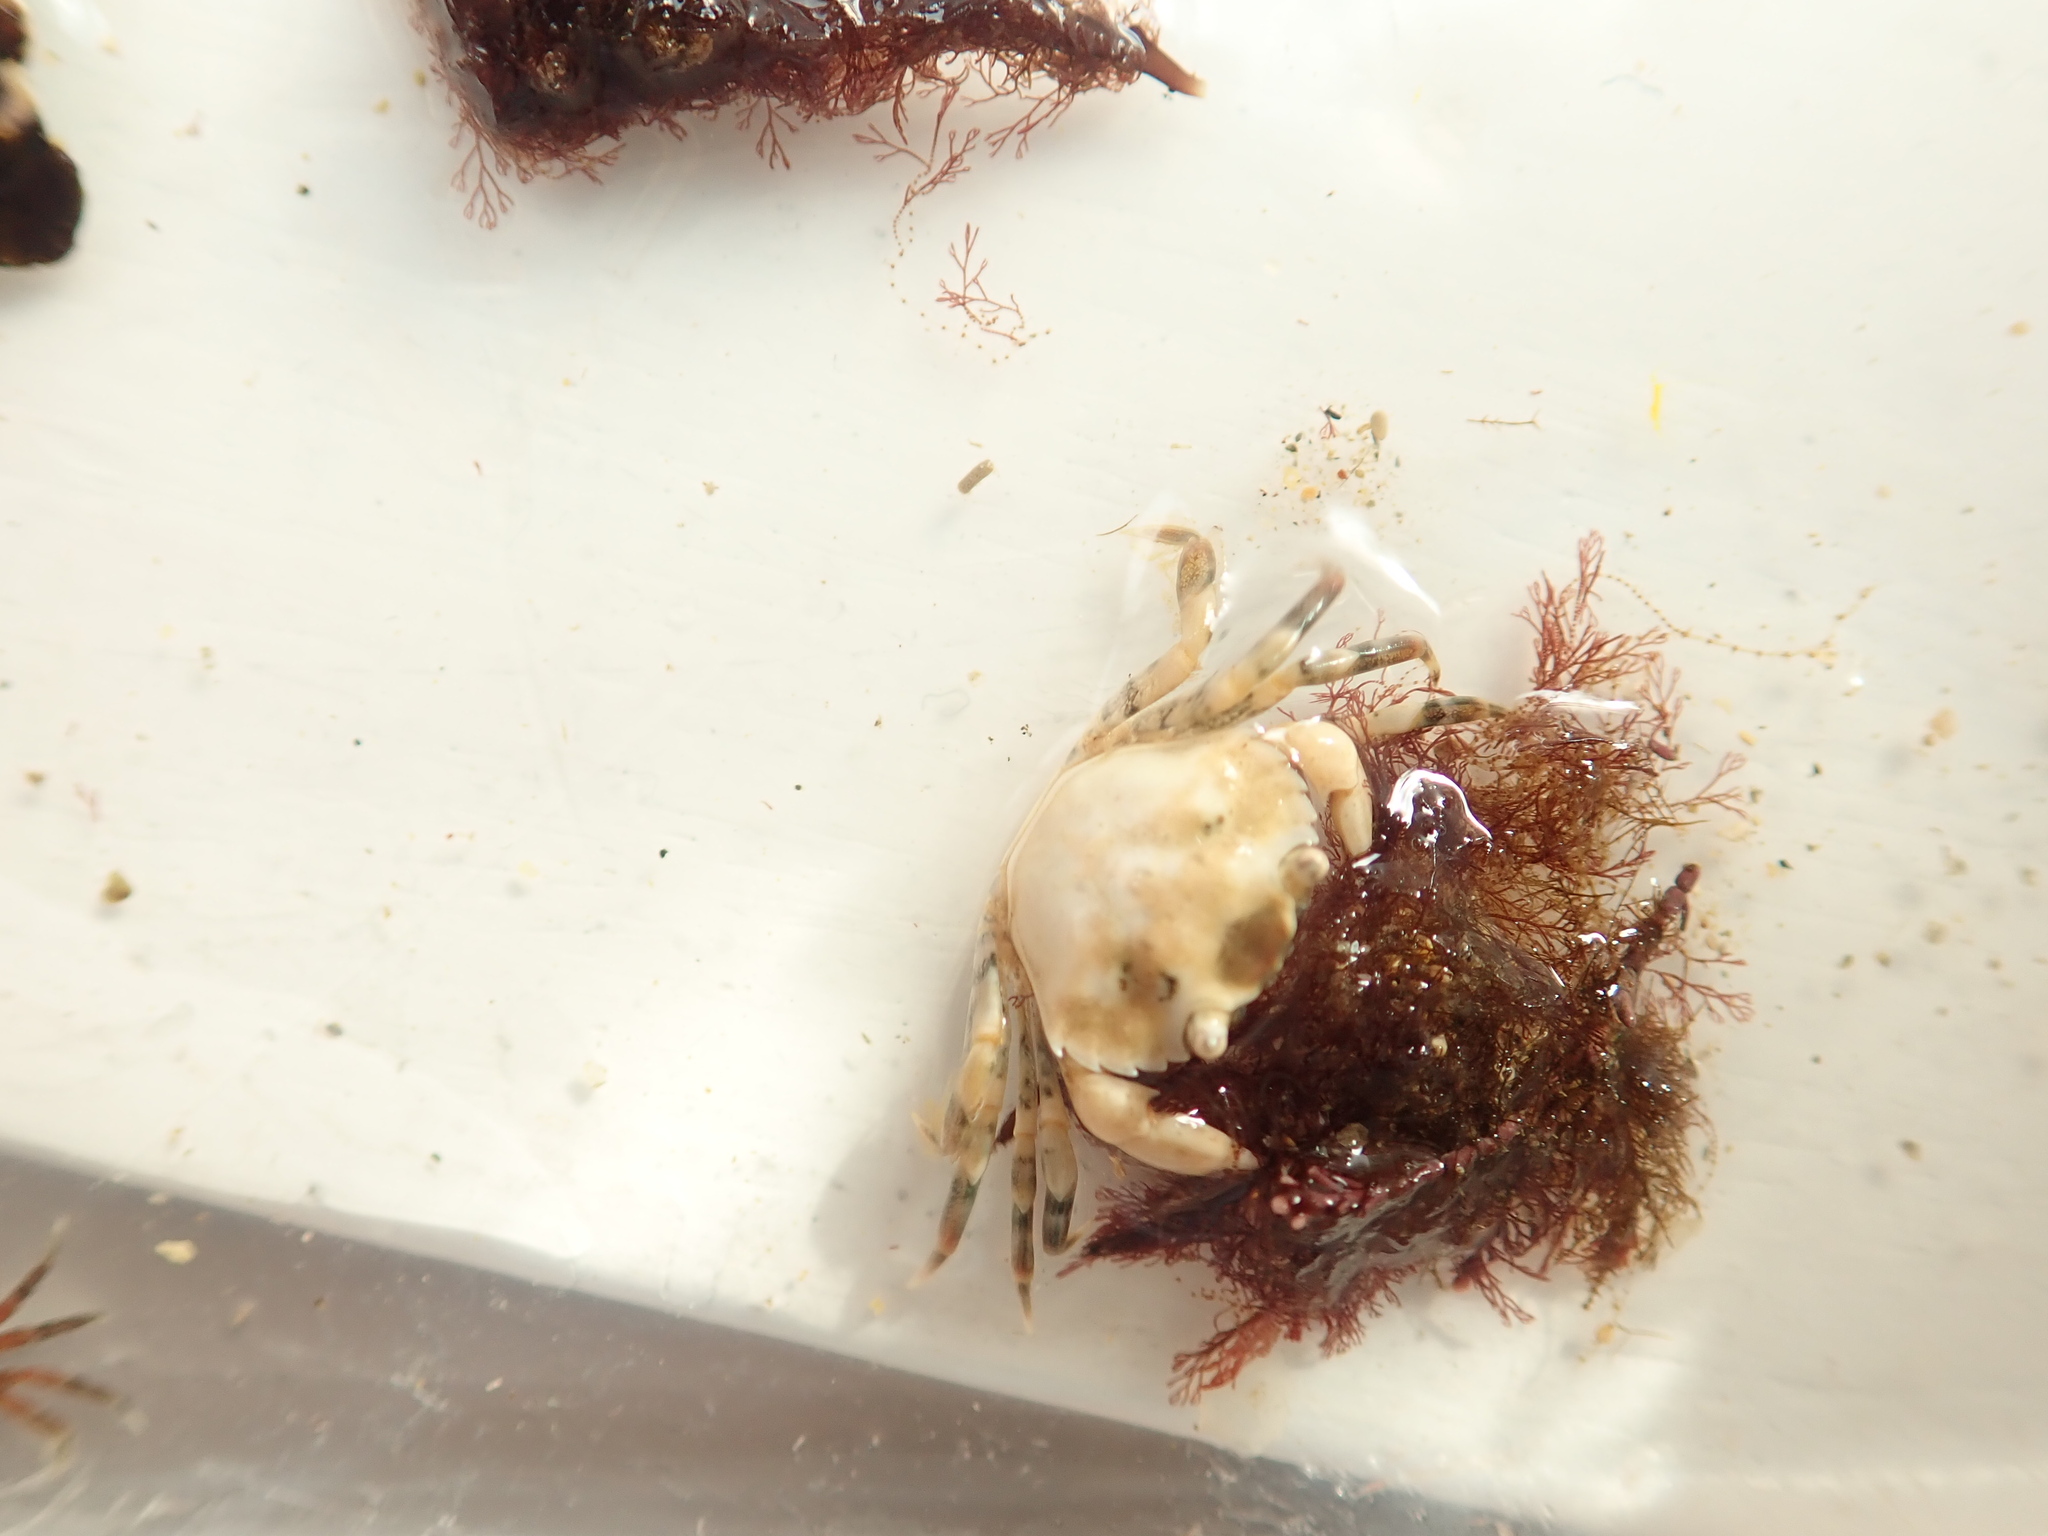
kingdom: Animalia
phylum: Arthropoda
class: Malacostraca
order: Decapoda
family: Carcinidae
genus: Carcinus
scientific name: Carcinus maenas
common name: European green crab
